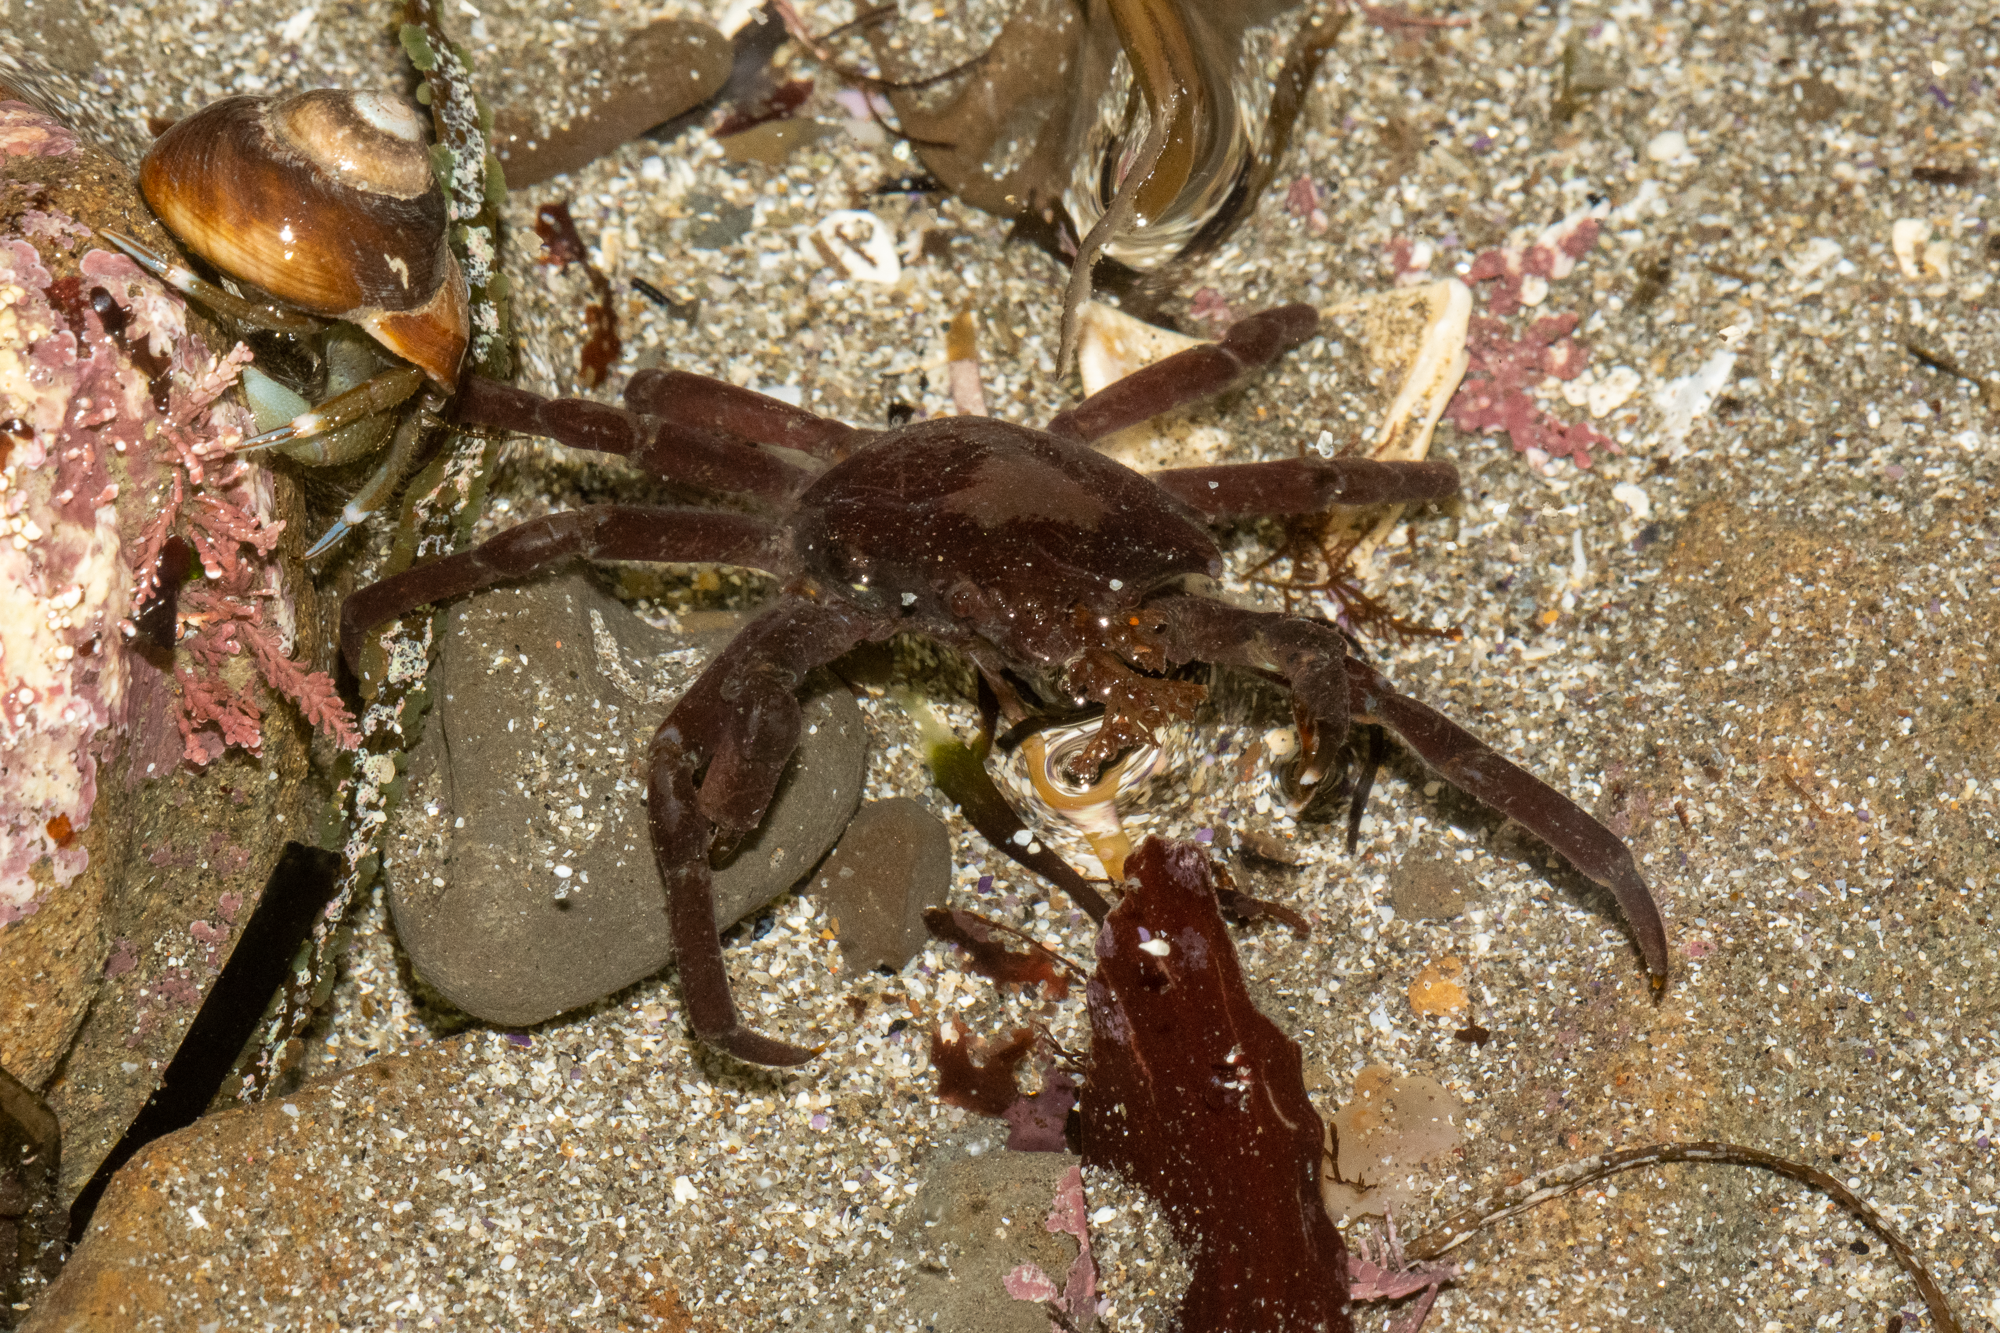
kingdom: Animalia
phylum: Arthropoda
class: Malacostraca
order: Decapoda
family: Epialtidae
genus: Pugettia
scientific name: Pugettia producta
